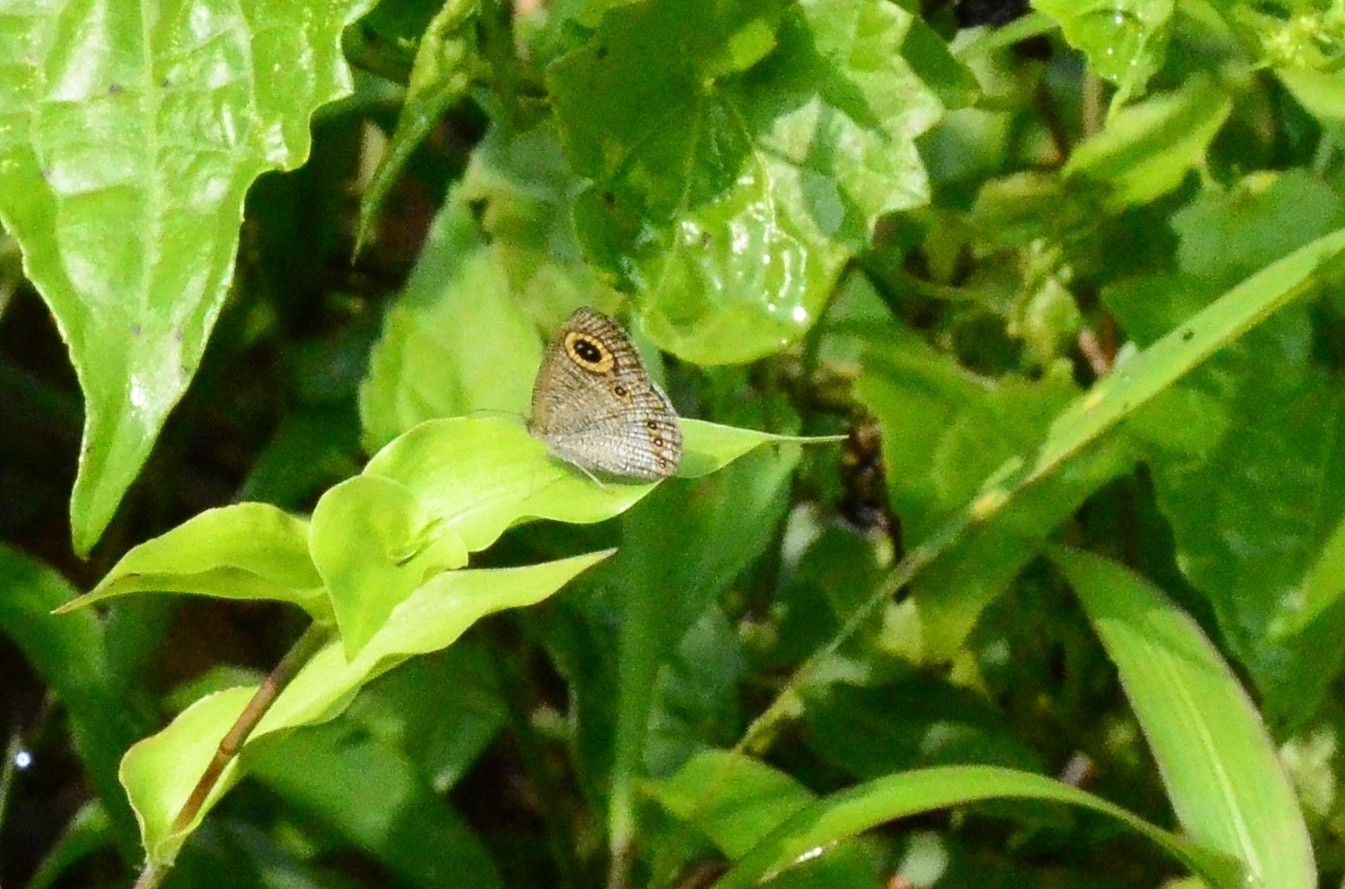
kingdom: Animalia
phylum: Arthropoda
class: Insecta
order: Lepidoptera
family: Nymphalidae
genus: Ypthima
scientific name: Ypthima huebneri
